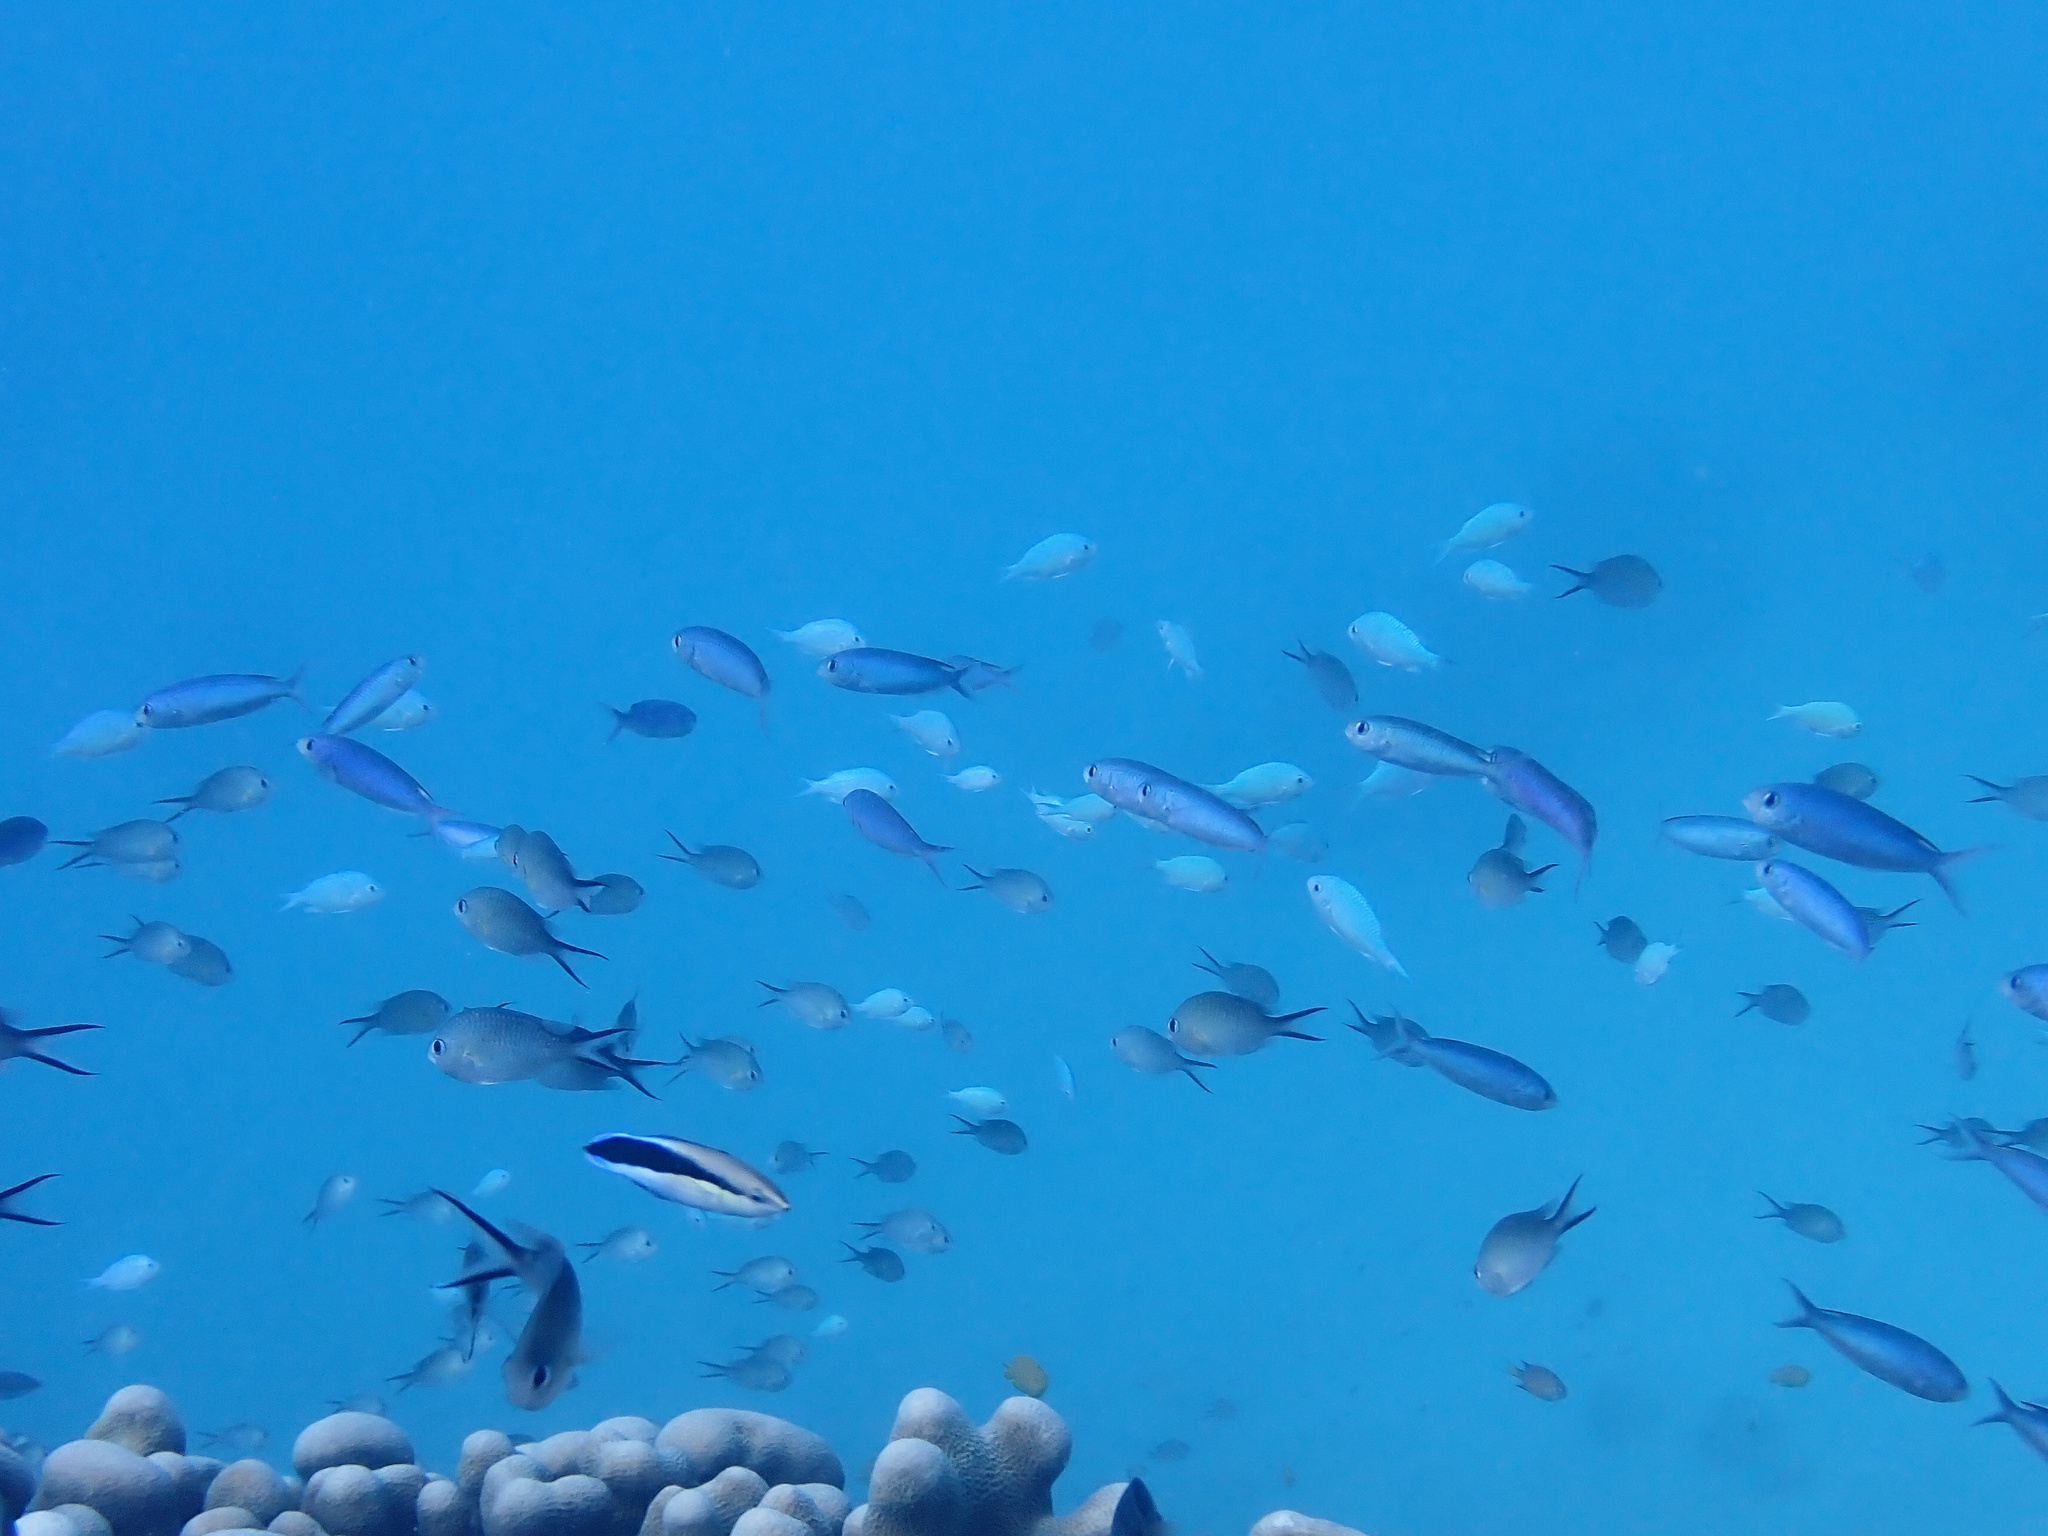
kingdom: Animalia
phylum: Chordata
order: Perciformes
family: Pomacentridae
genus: Lepidozygus
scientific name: Lepidozygus tapeinosoma
